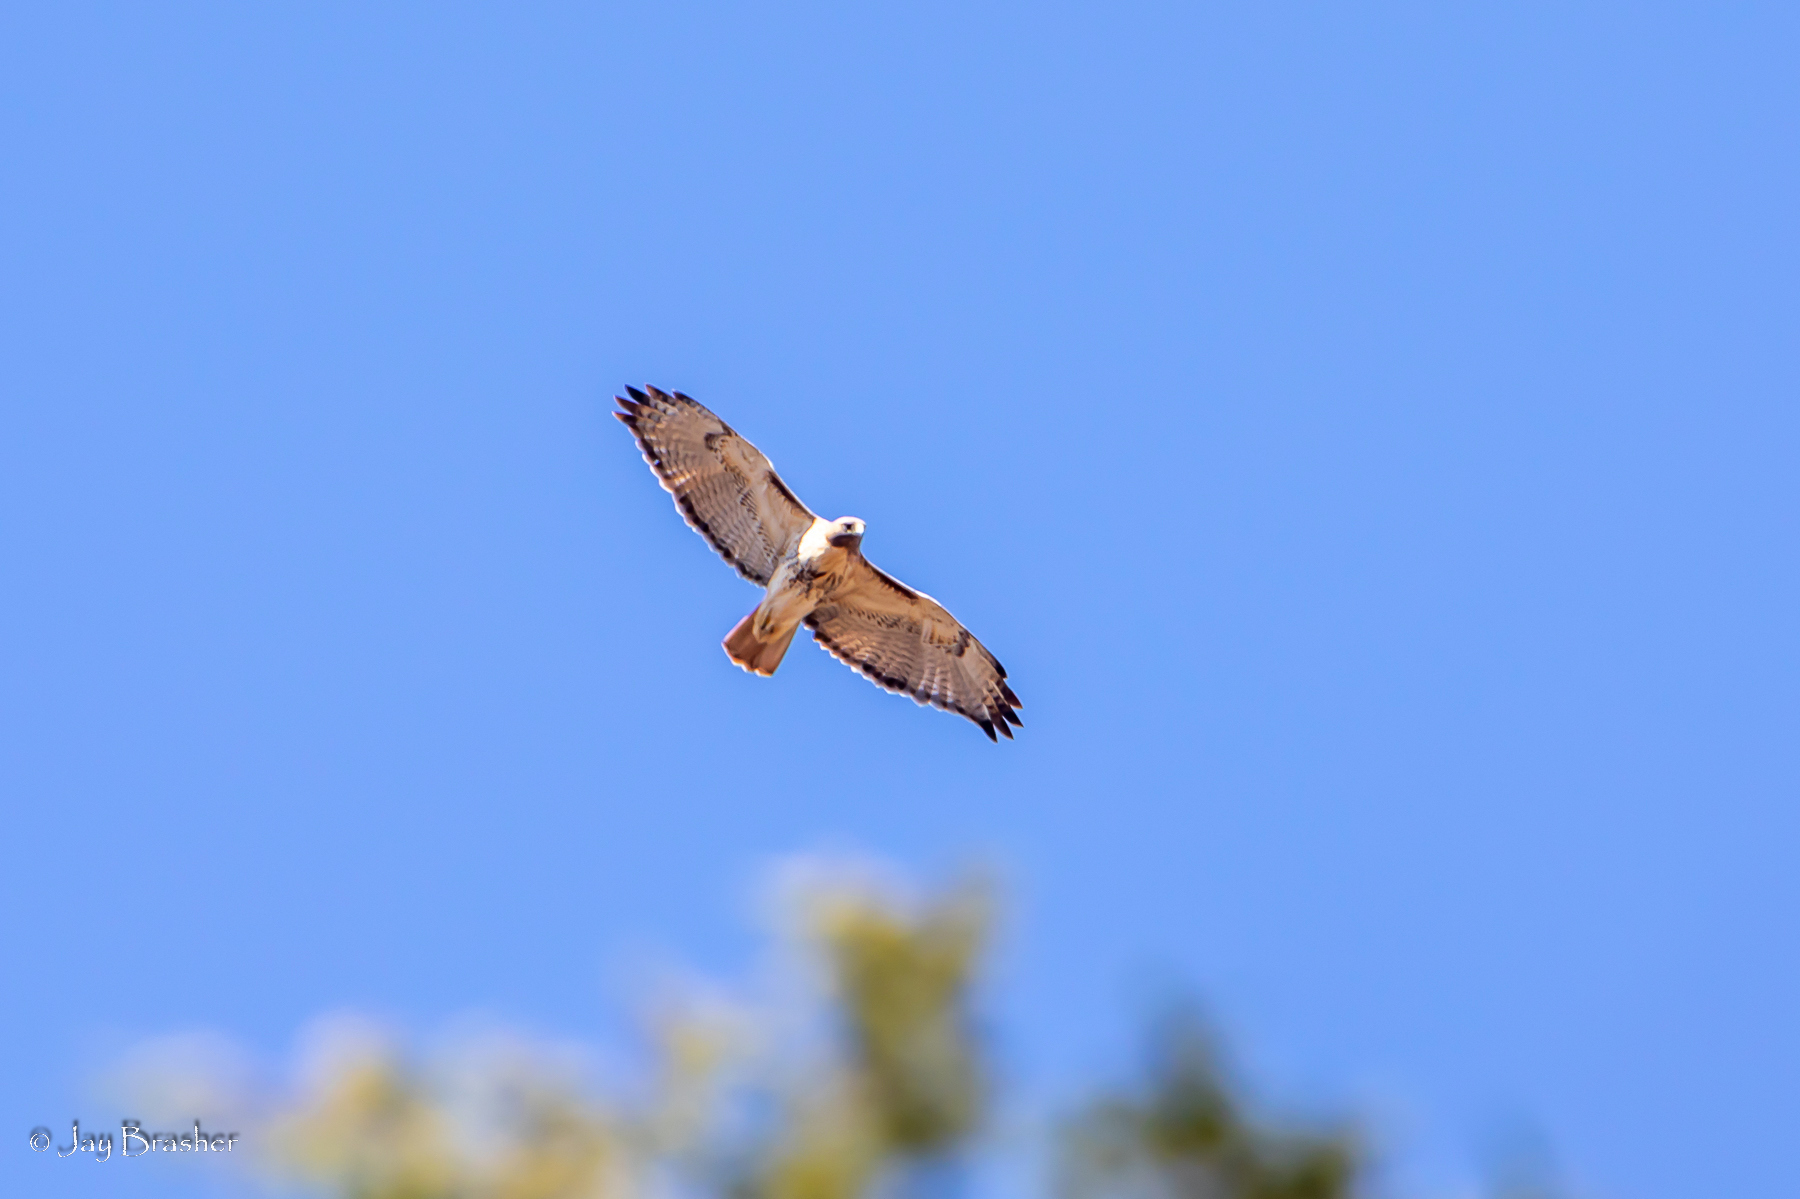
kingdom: Animalia
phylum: Chordata
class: Aves
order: Accipitriformes
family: Accipitridae
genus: Buteo
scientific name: Buteo jamaicensis
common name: Red-tailed hawk
